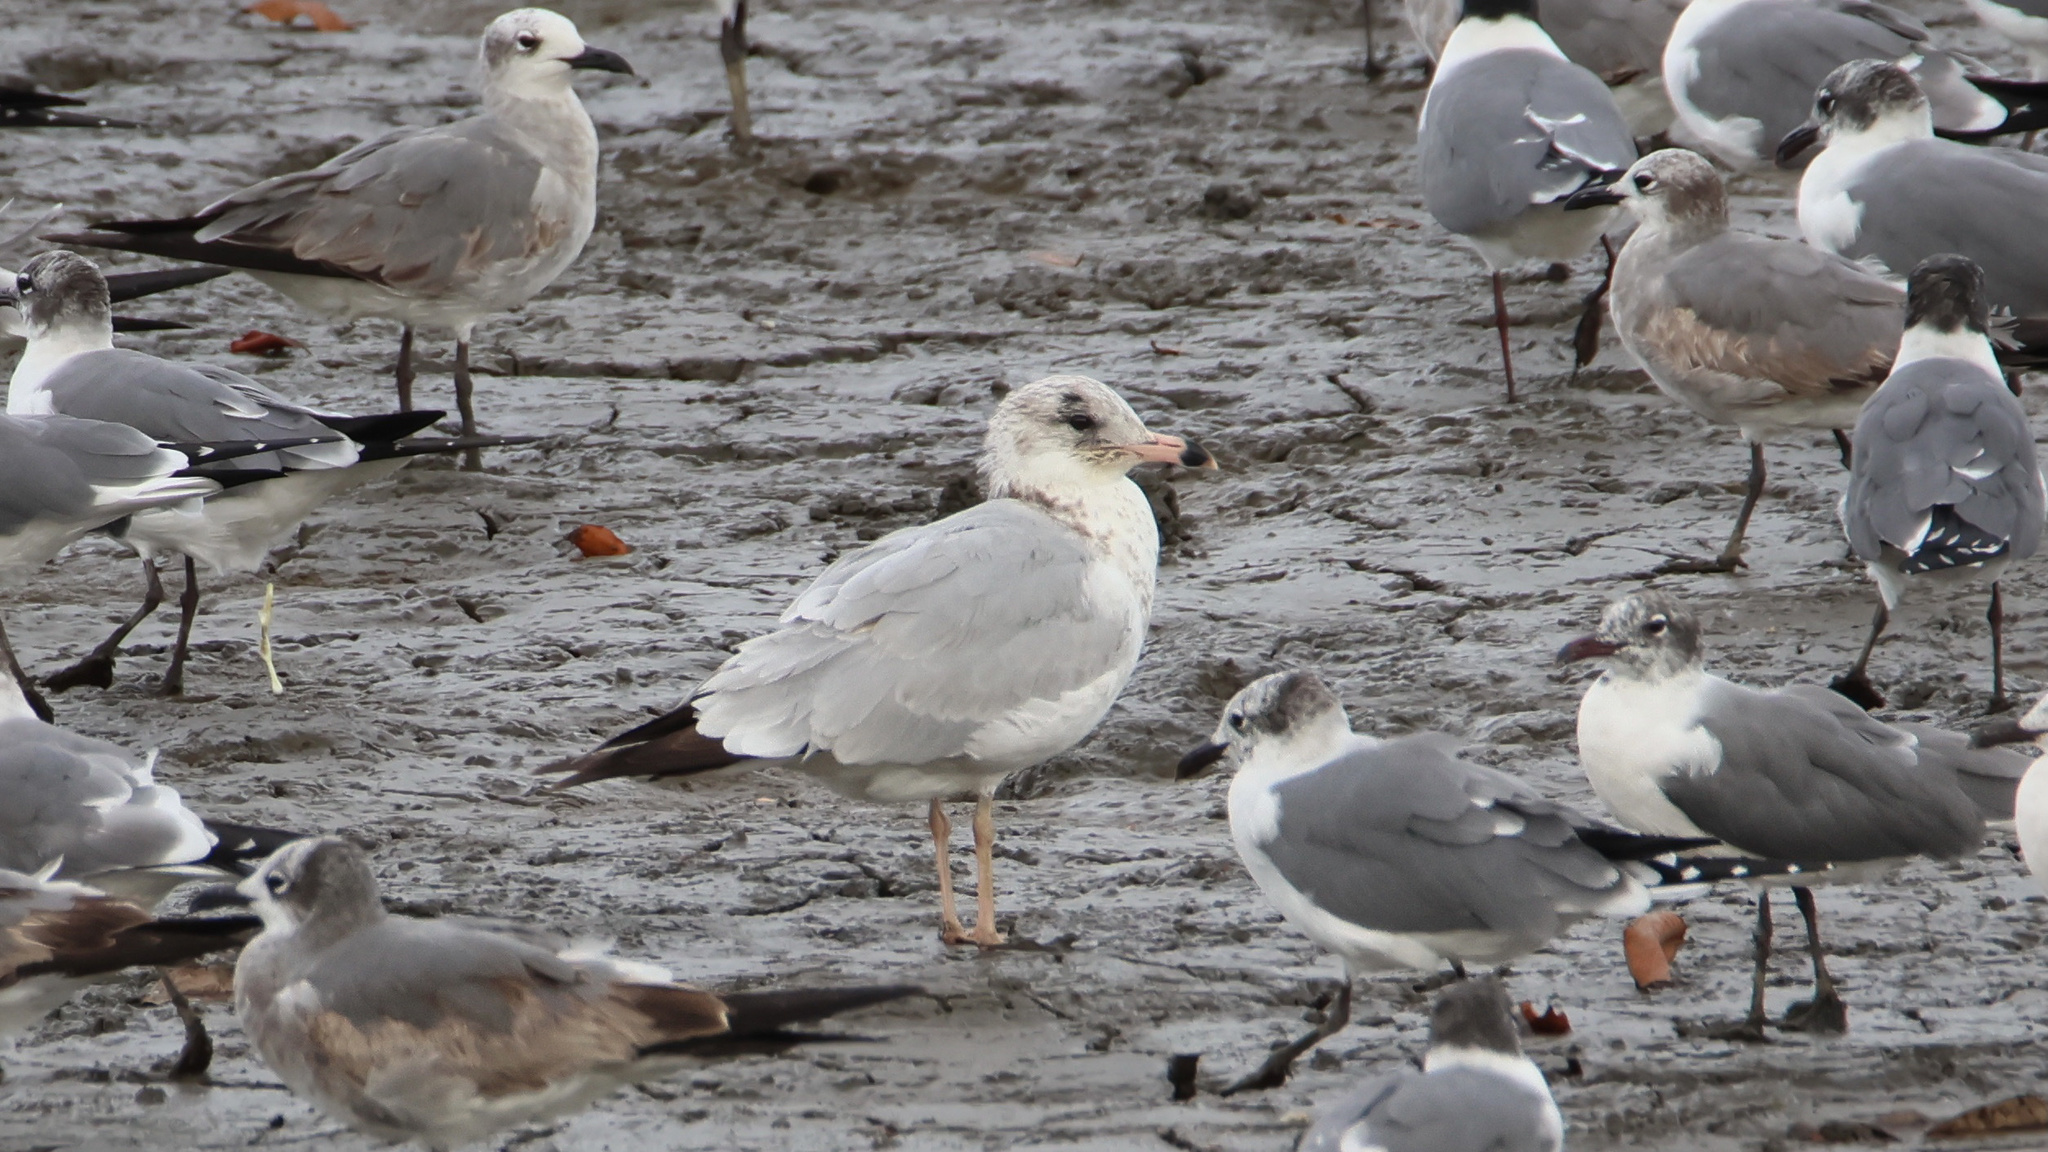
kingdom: Animalia
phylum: Chordata
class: Aves
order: Charadriiformes
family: Laridae
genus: Larus
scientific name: Larus delawarensis
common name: Ring-billed gull
